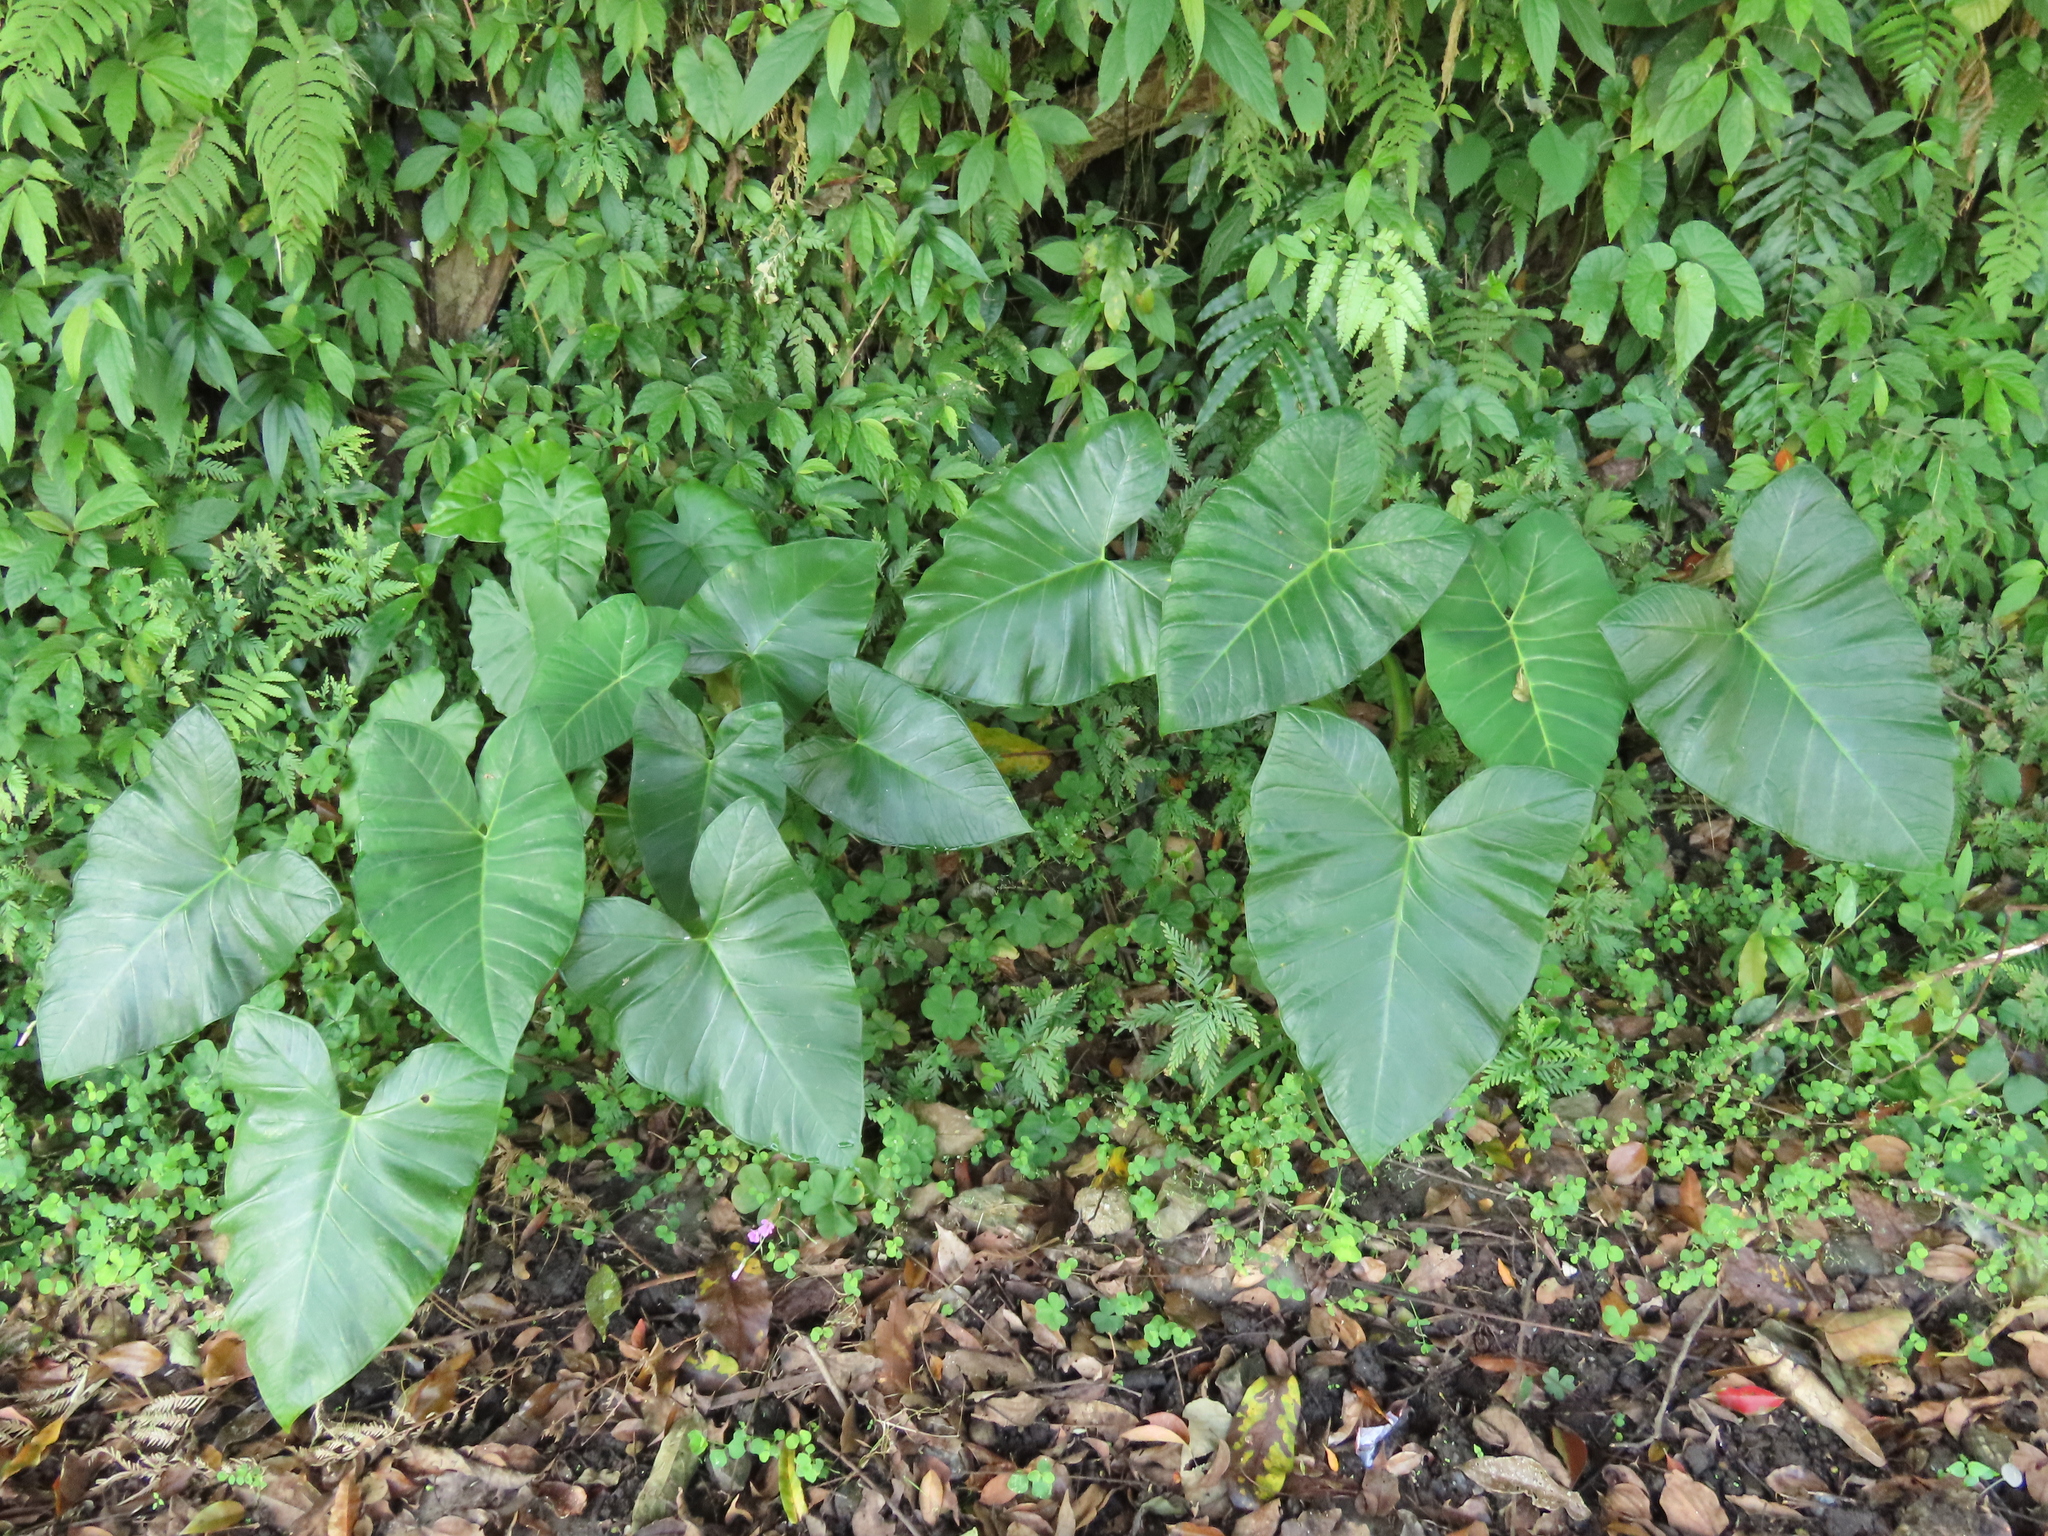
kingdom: Plantae
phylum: Tracheophyta
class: Liliopsida
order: Alismatales
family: Araceae
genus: Xanthosoma
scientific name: Xanthosoma sagittifolium
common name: Arrowleaf elephant's ear
